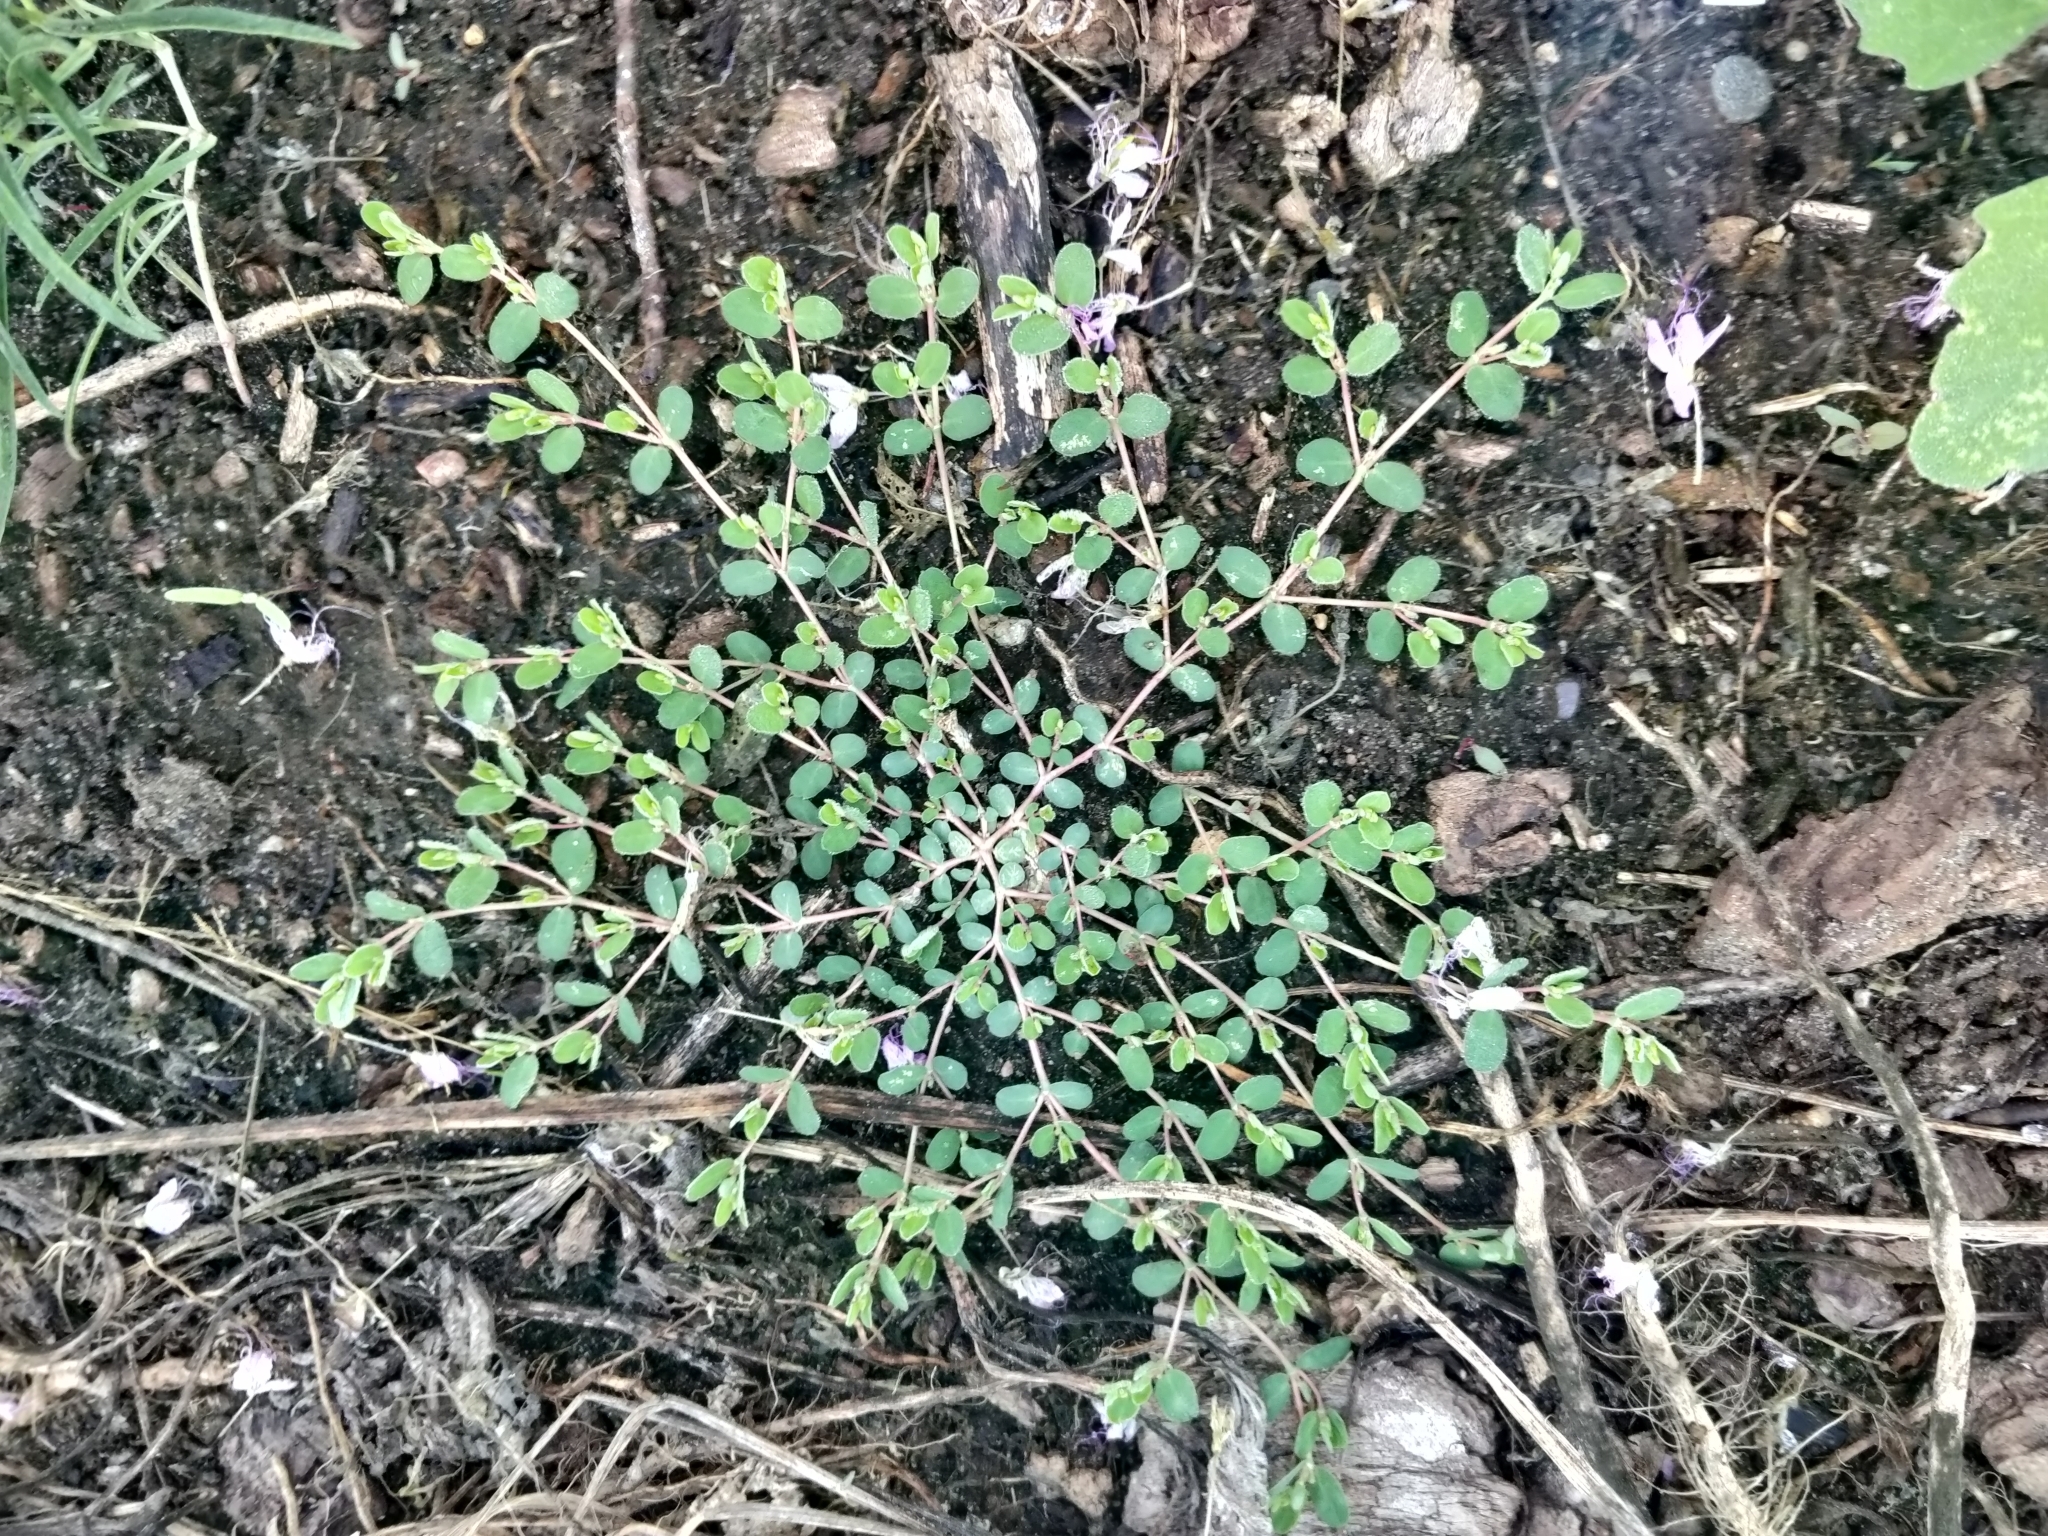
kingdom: Plantae
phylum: Tracheophyta
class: Magnoliopsida
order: Malpighiales
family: Euphorbiaceae
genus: Euphorbia
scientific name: Euphorbia serpens
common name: Matted sandmat
